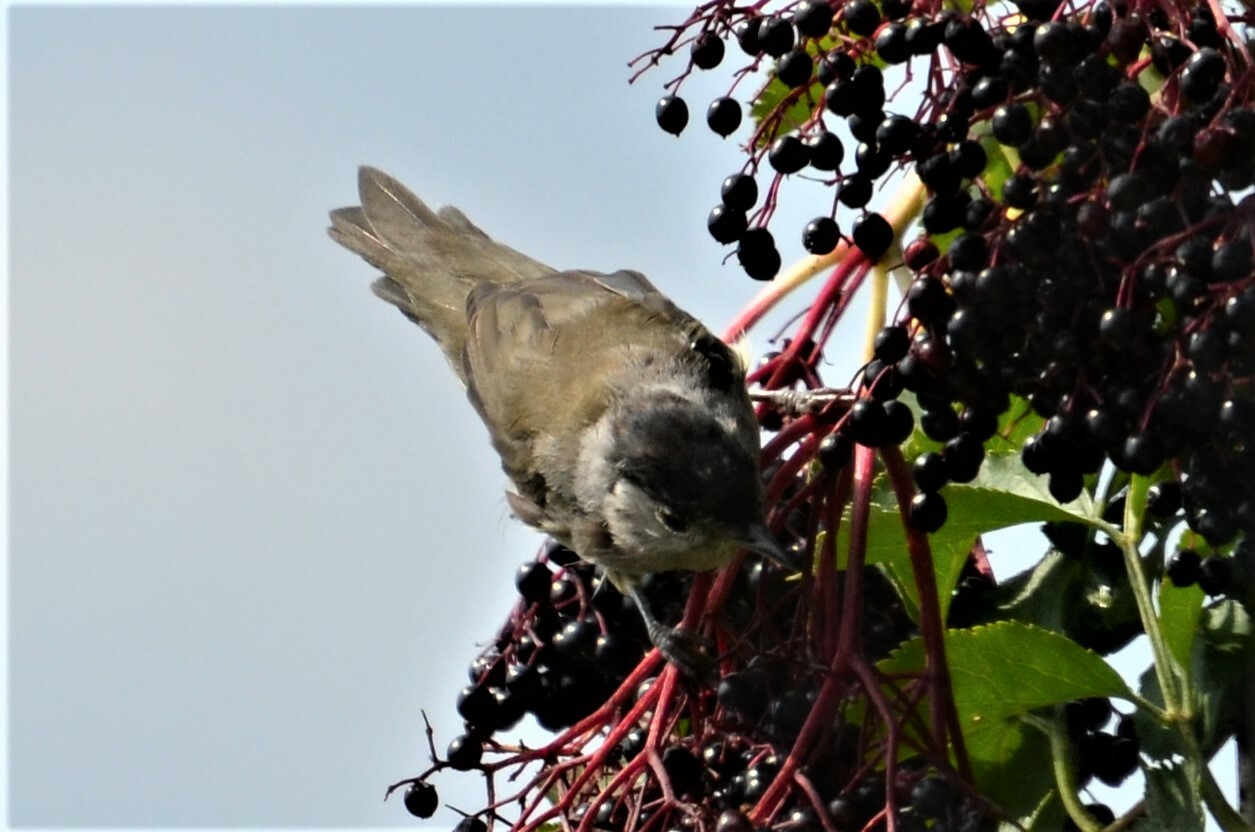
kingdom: Animalia
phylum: Chordata
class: Aves
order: Passeriformes
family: Sylviidae
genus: Sylvia
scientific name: Sylvia atricapilla
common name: Eurasian blackcap
